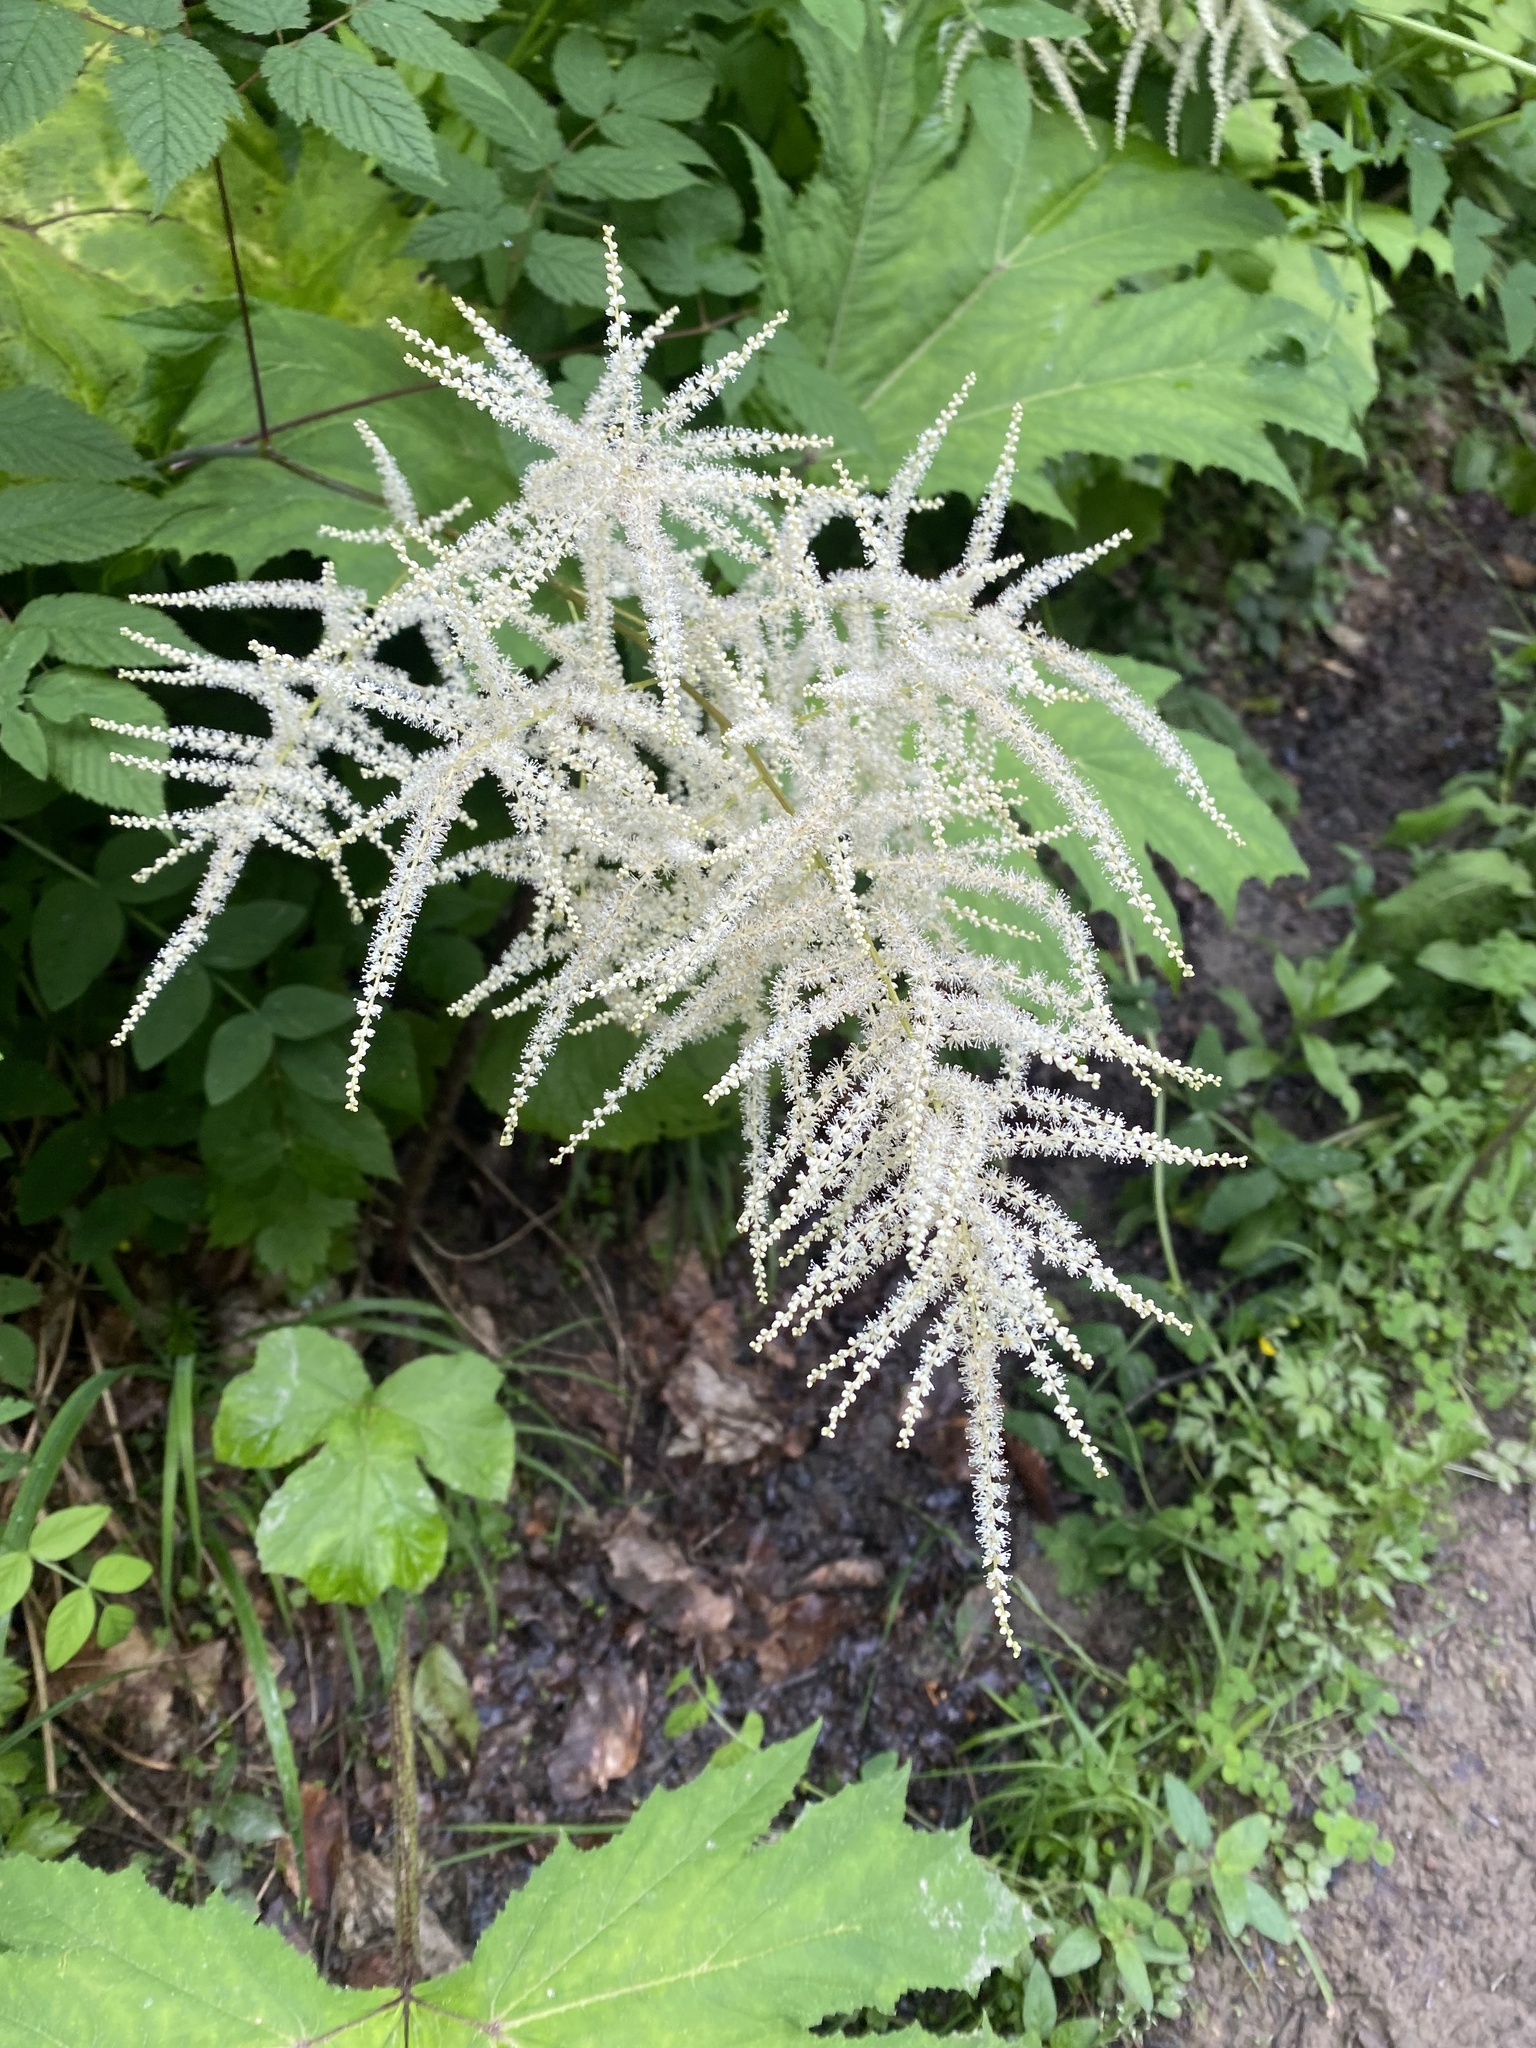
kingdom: Plantae
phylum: Tracheophyta
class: Magnoliopsida
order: Rosales
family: Rosaceae
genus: Aruncus
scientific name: Aruncus dioicus
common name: Buck's-beard
